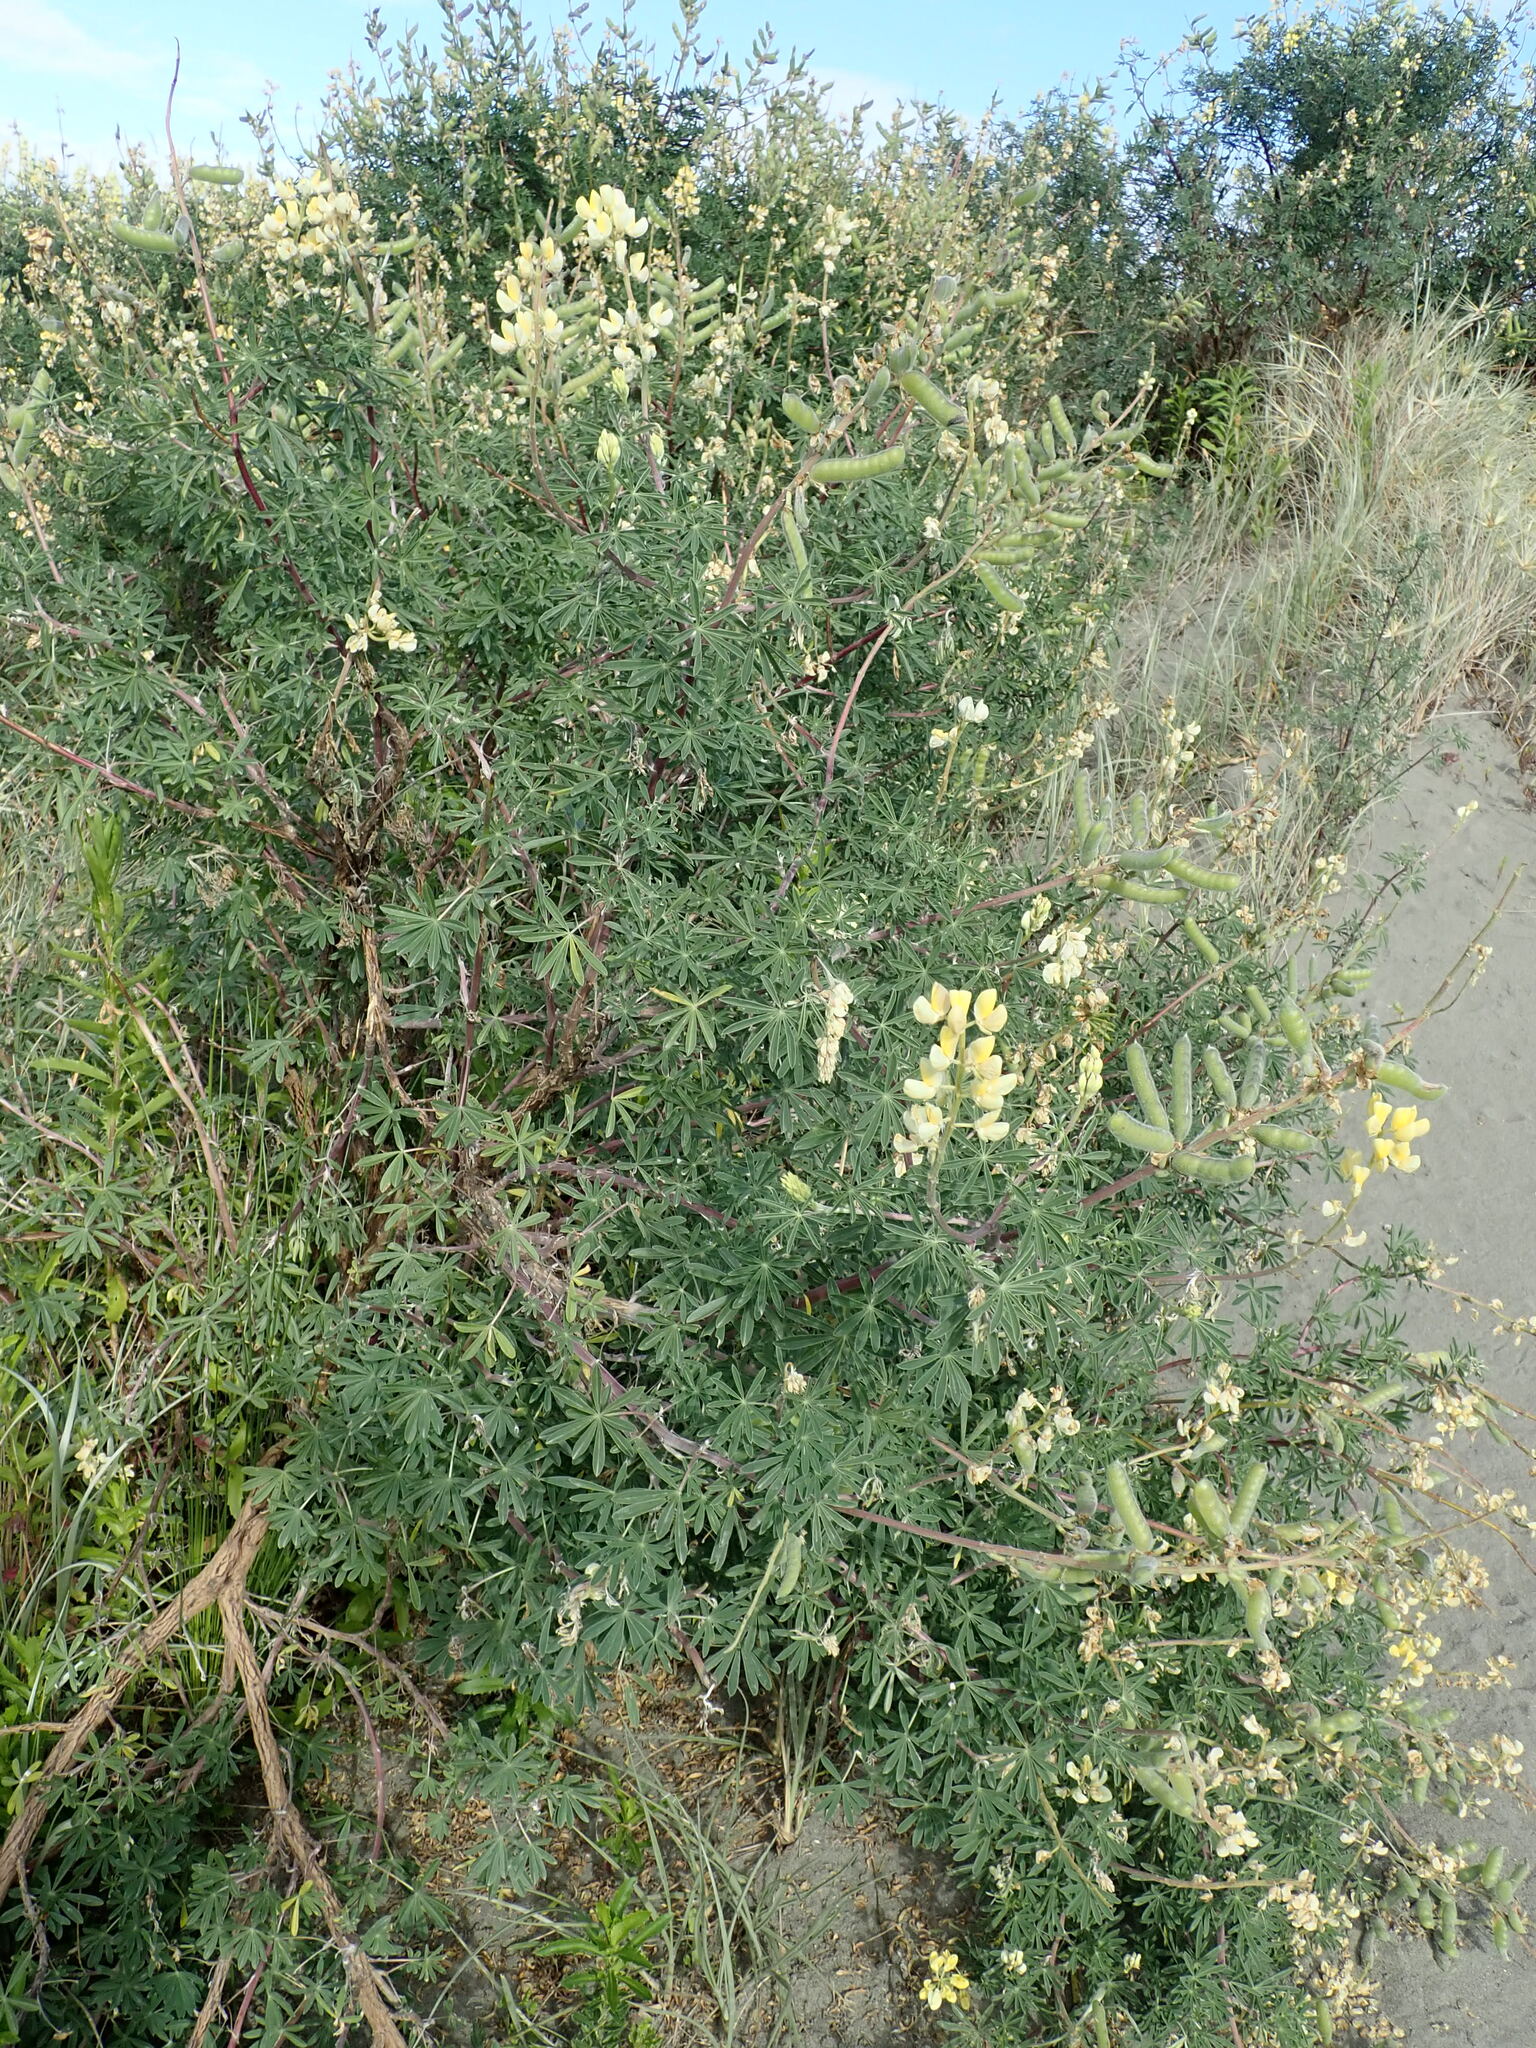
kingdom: Plantae
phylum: Tracheophyta
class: Magnoliopsida
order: Fabales
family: Fabaceae
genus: Lupinus
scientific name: Lupinus arboreus
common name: Yellow bush lupine
